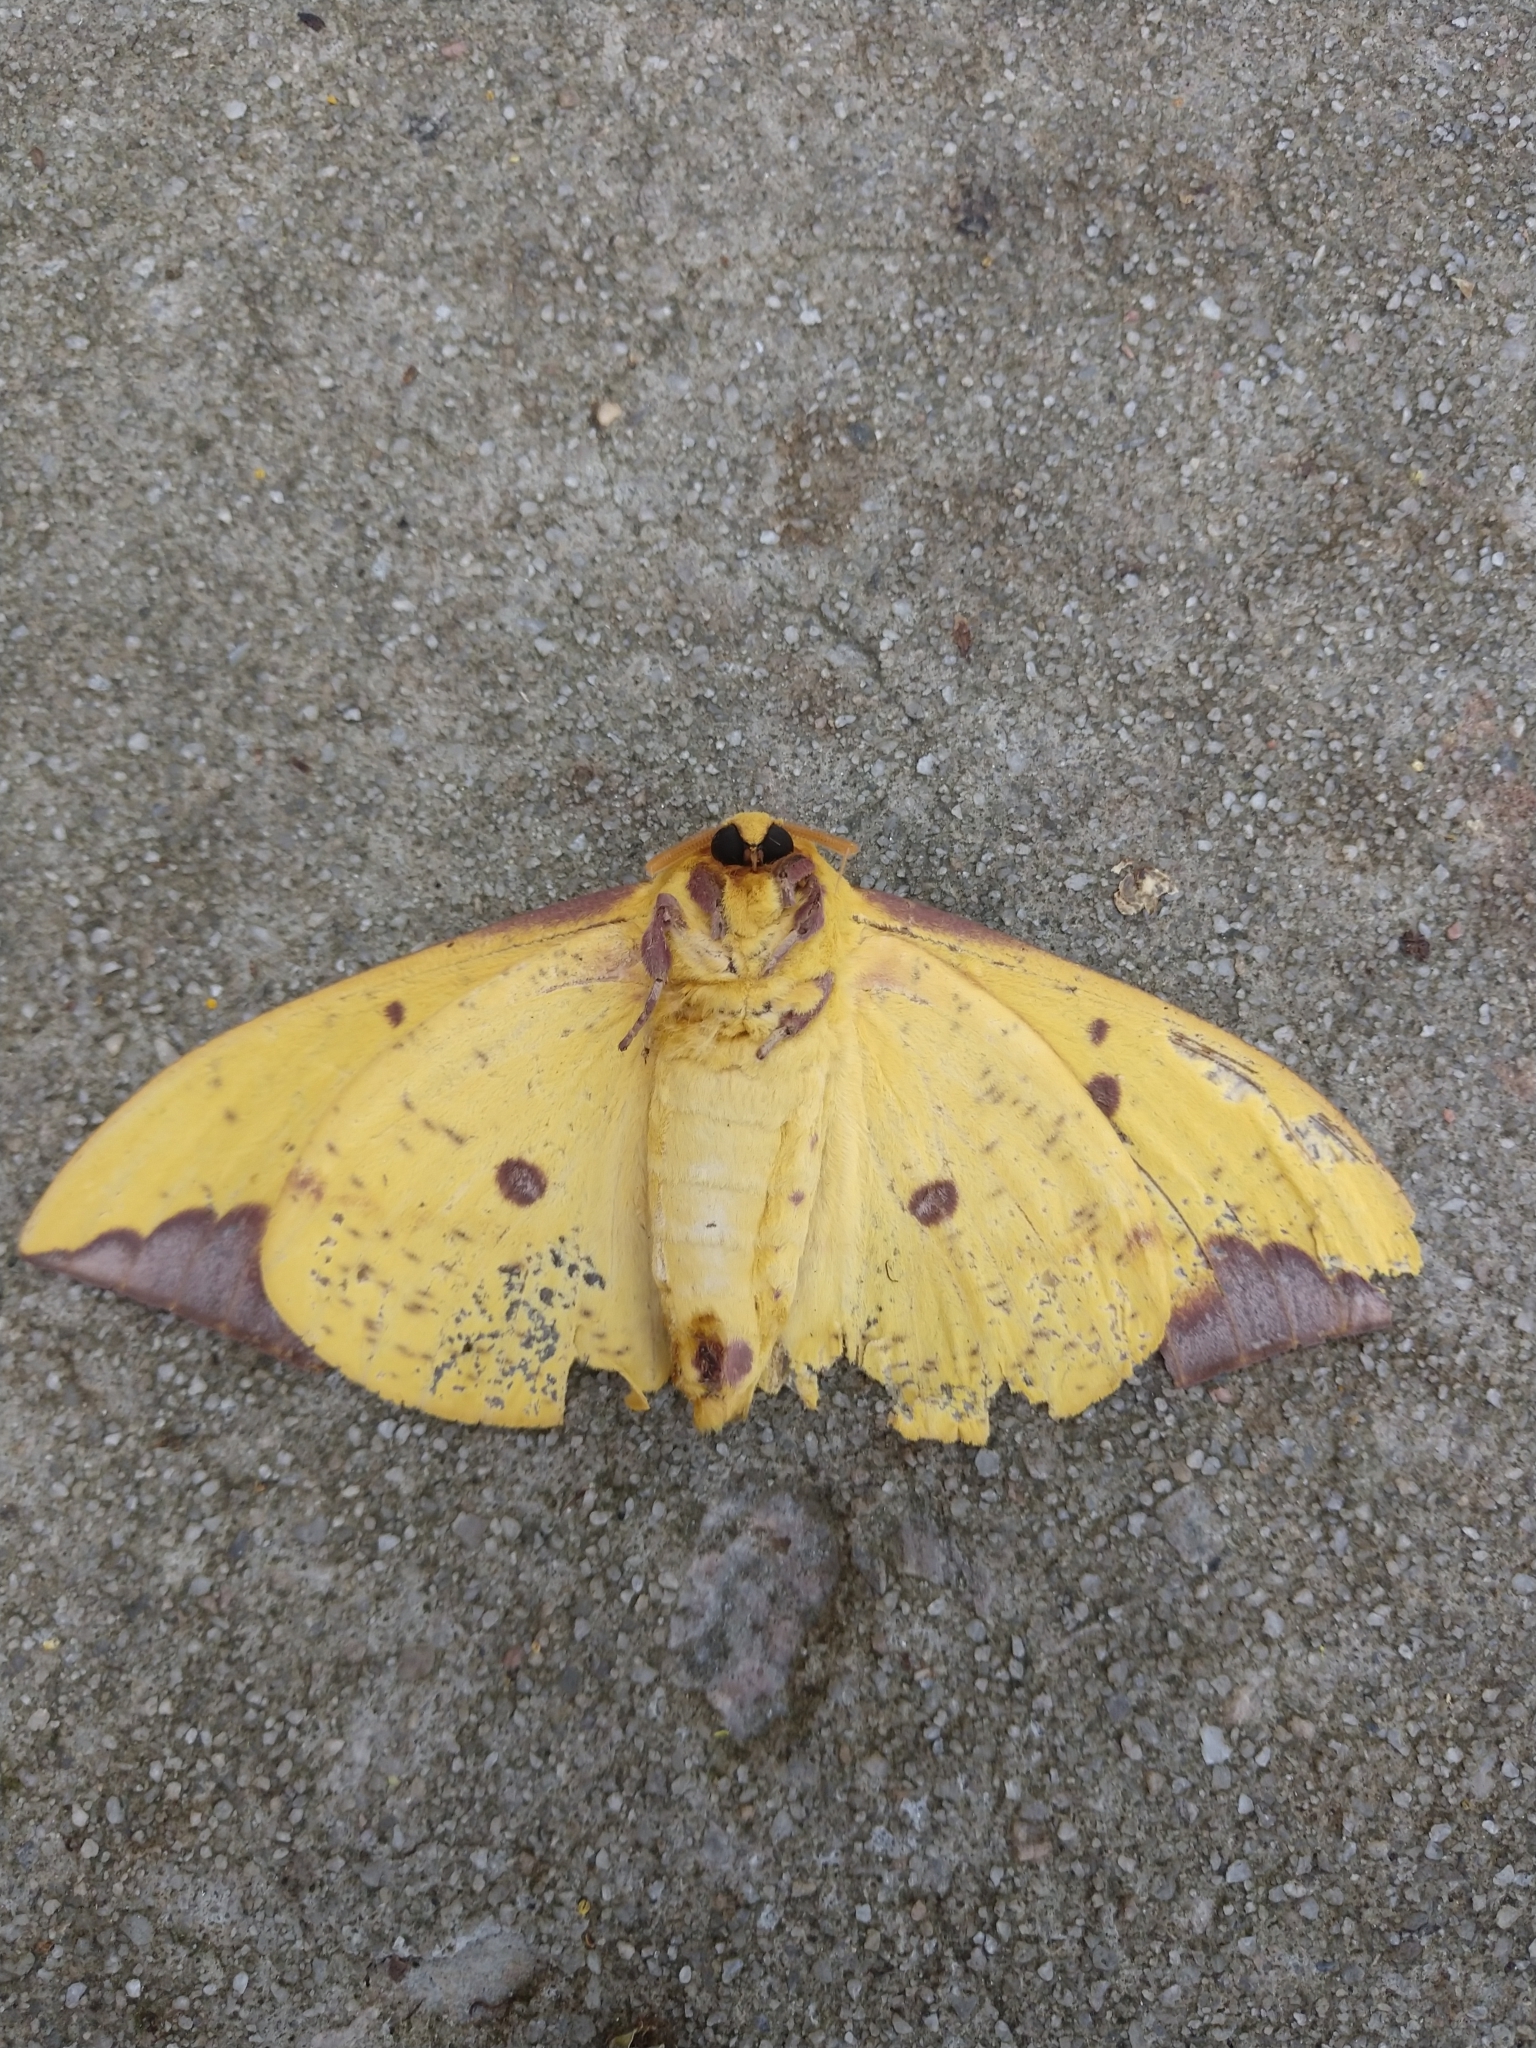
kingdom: Animalia
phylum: Arthropoda
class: Insecta
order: Lepidoptera
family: Saturniidae
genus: Eacles
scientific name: Eacles imperialis
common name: Imperial moth
